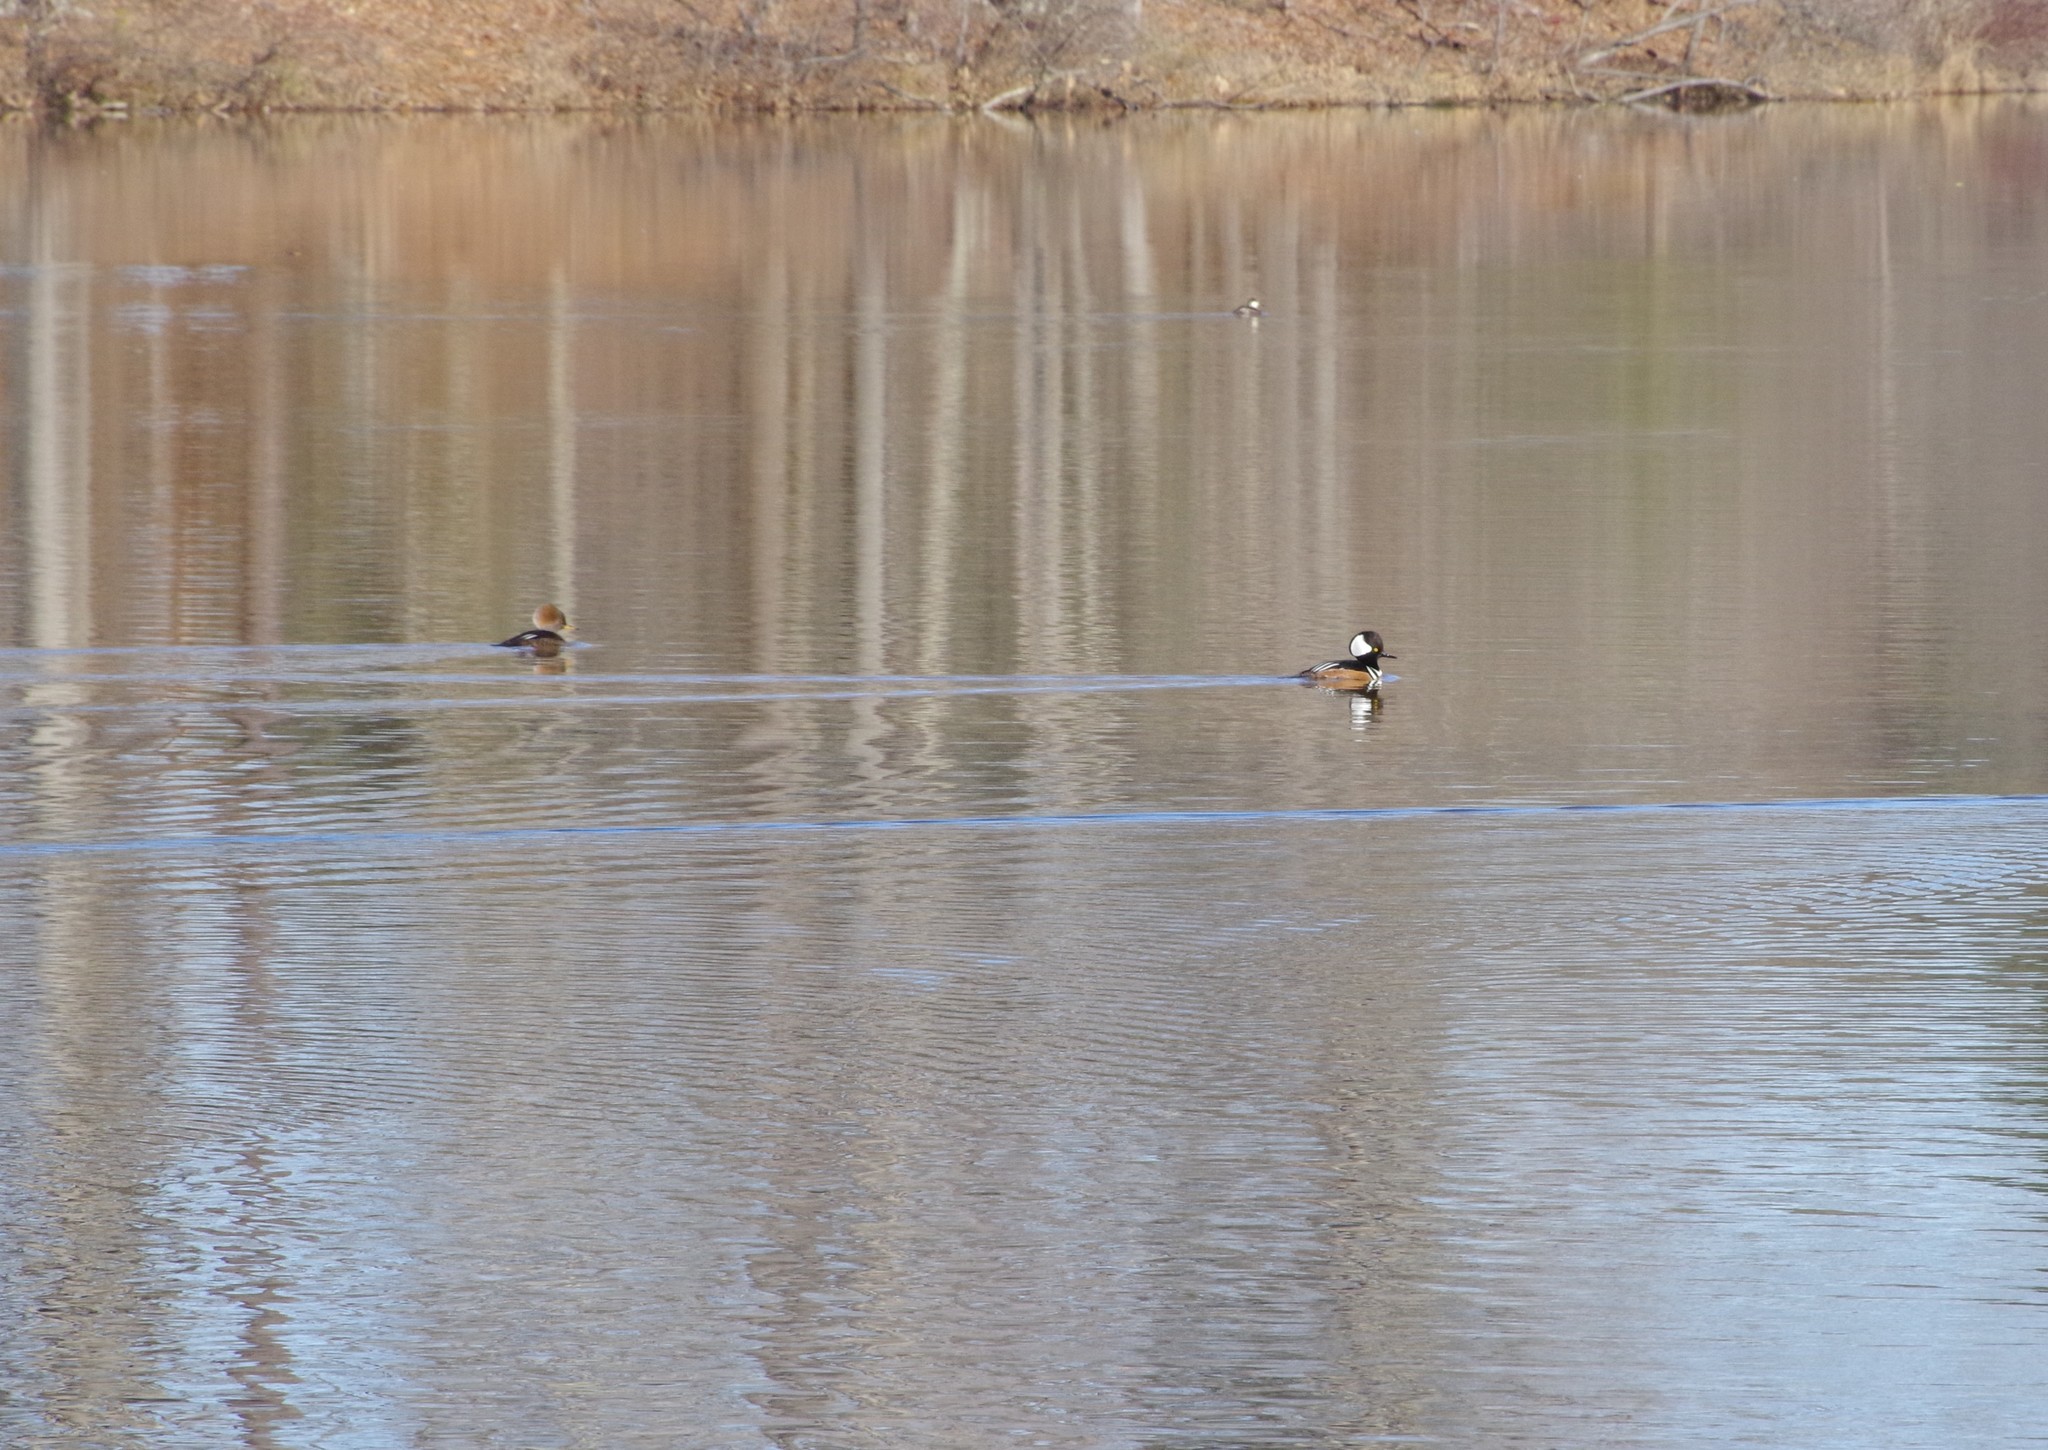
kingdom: Animalia
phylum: Chordata
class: Aves
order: Anseriformes
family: Anatidae
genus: Lophodytes
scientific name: Lophodytes cucullatus
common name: Hooded merganser
